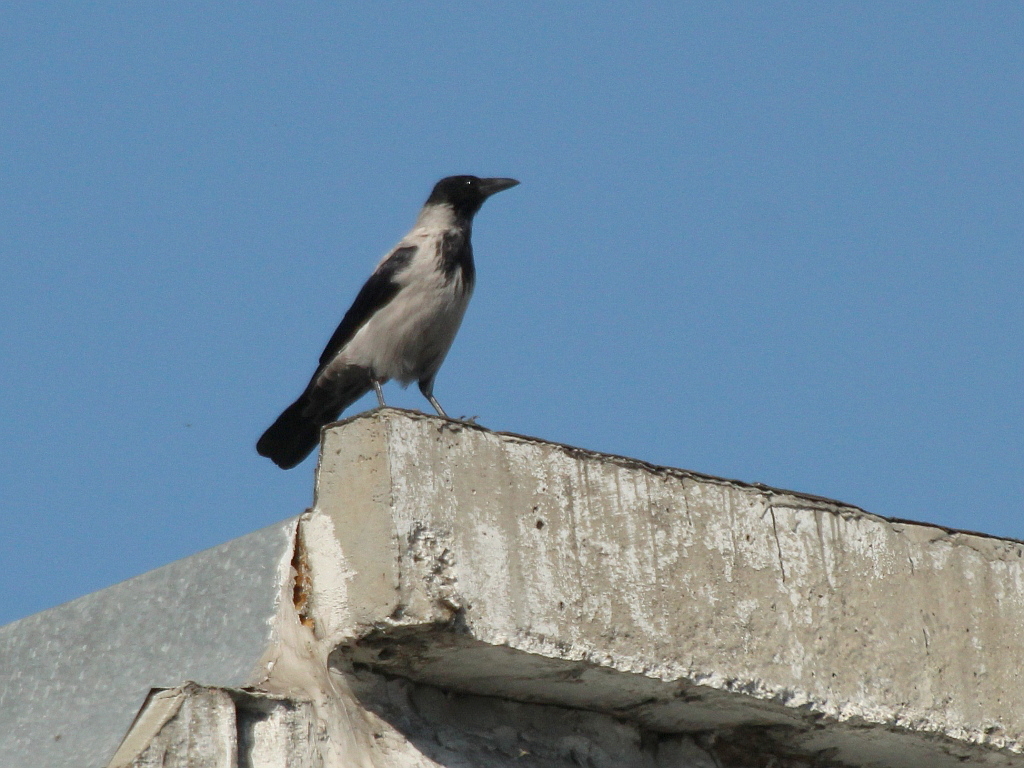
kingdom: Animalia
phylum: Chordata
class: Aves
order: Passeriformes
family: Corvidae
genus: Corvus
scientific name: Corvus cornix
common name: Hooded crow
